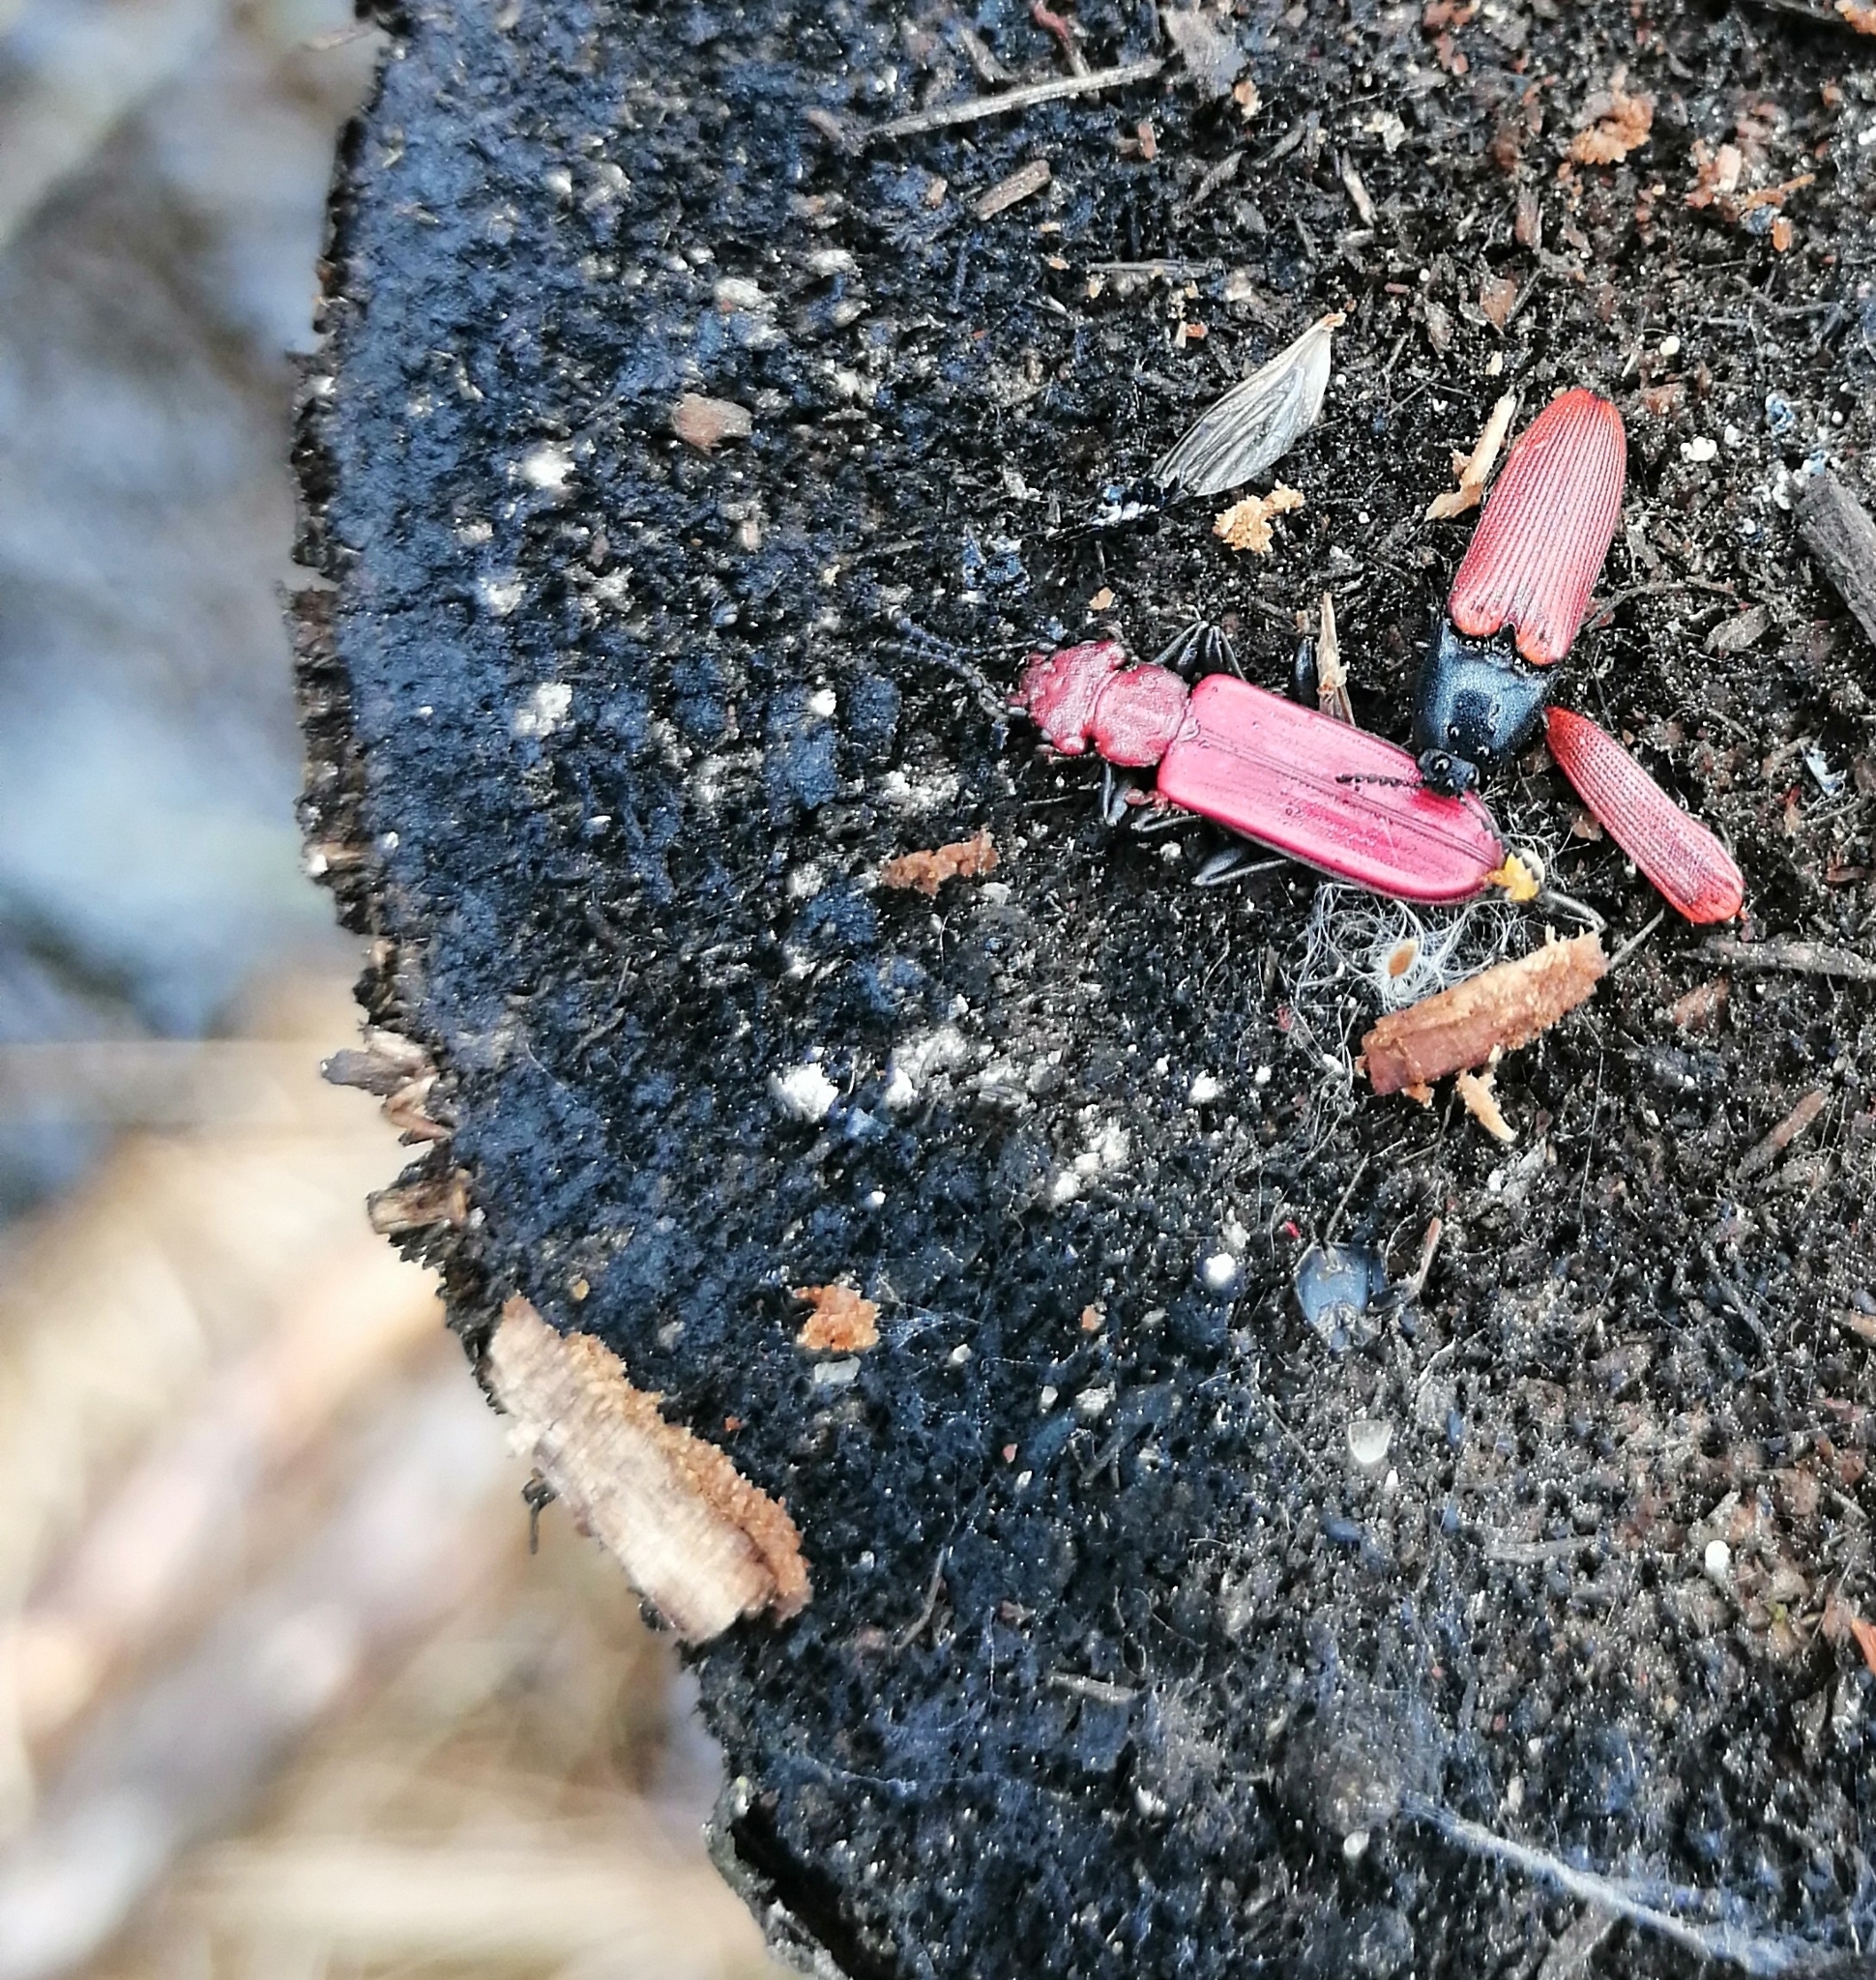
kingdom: Animalia
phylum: Arthropoda
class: Insecta
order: Coleoptera
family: Cucujidae
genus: Cucujus
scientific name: Cucujus haematodes
